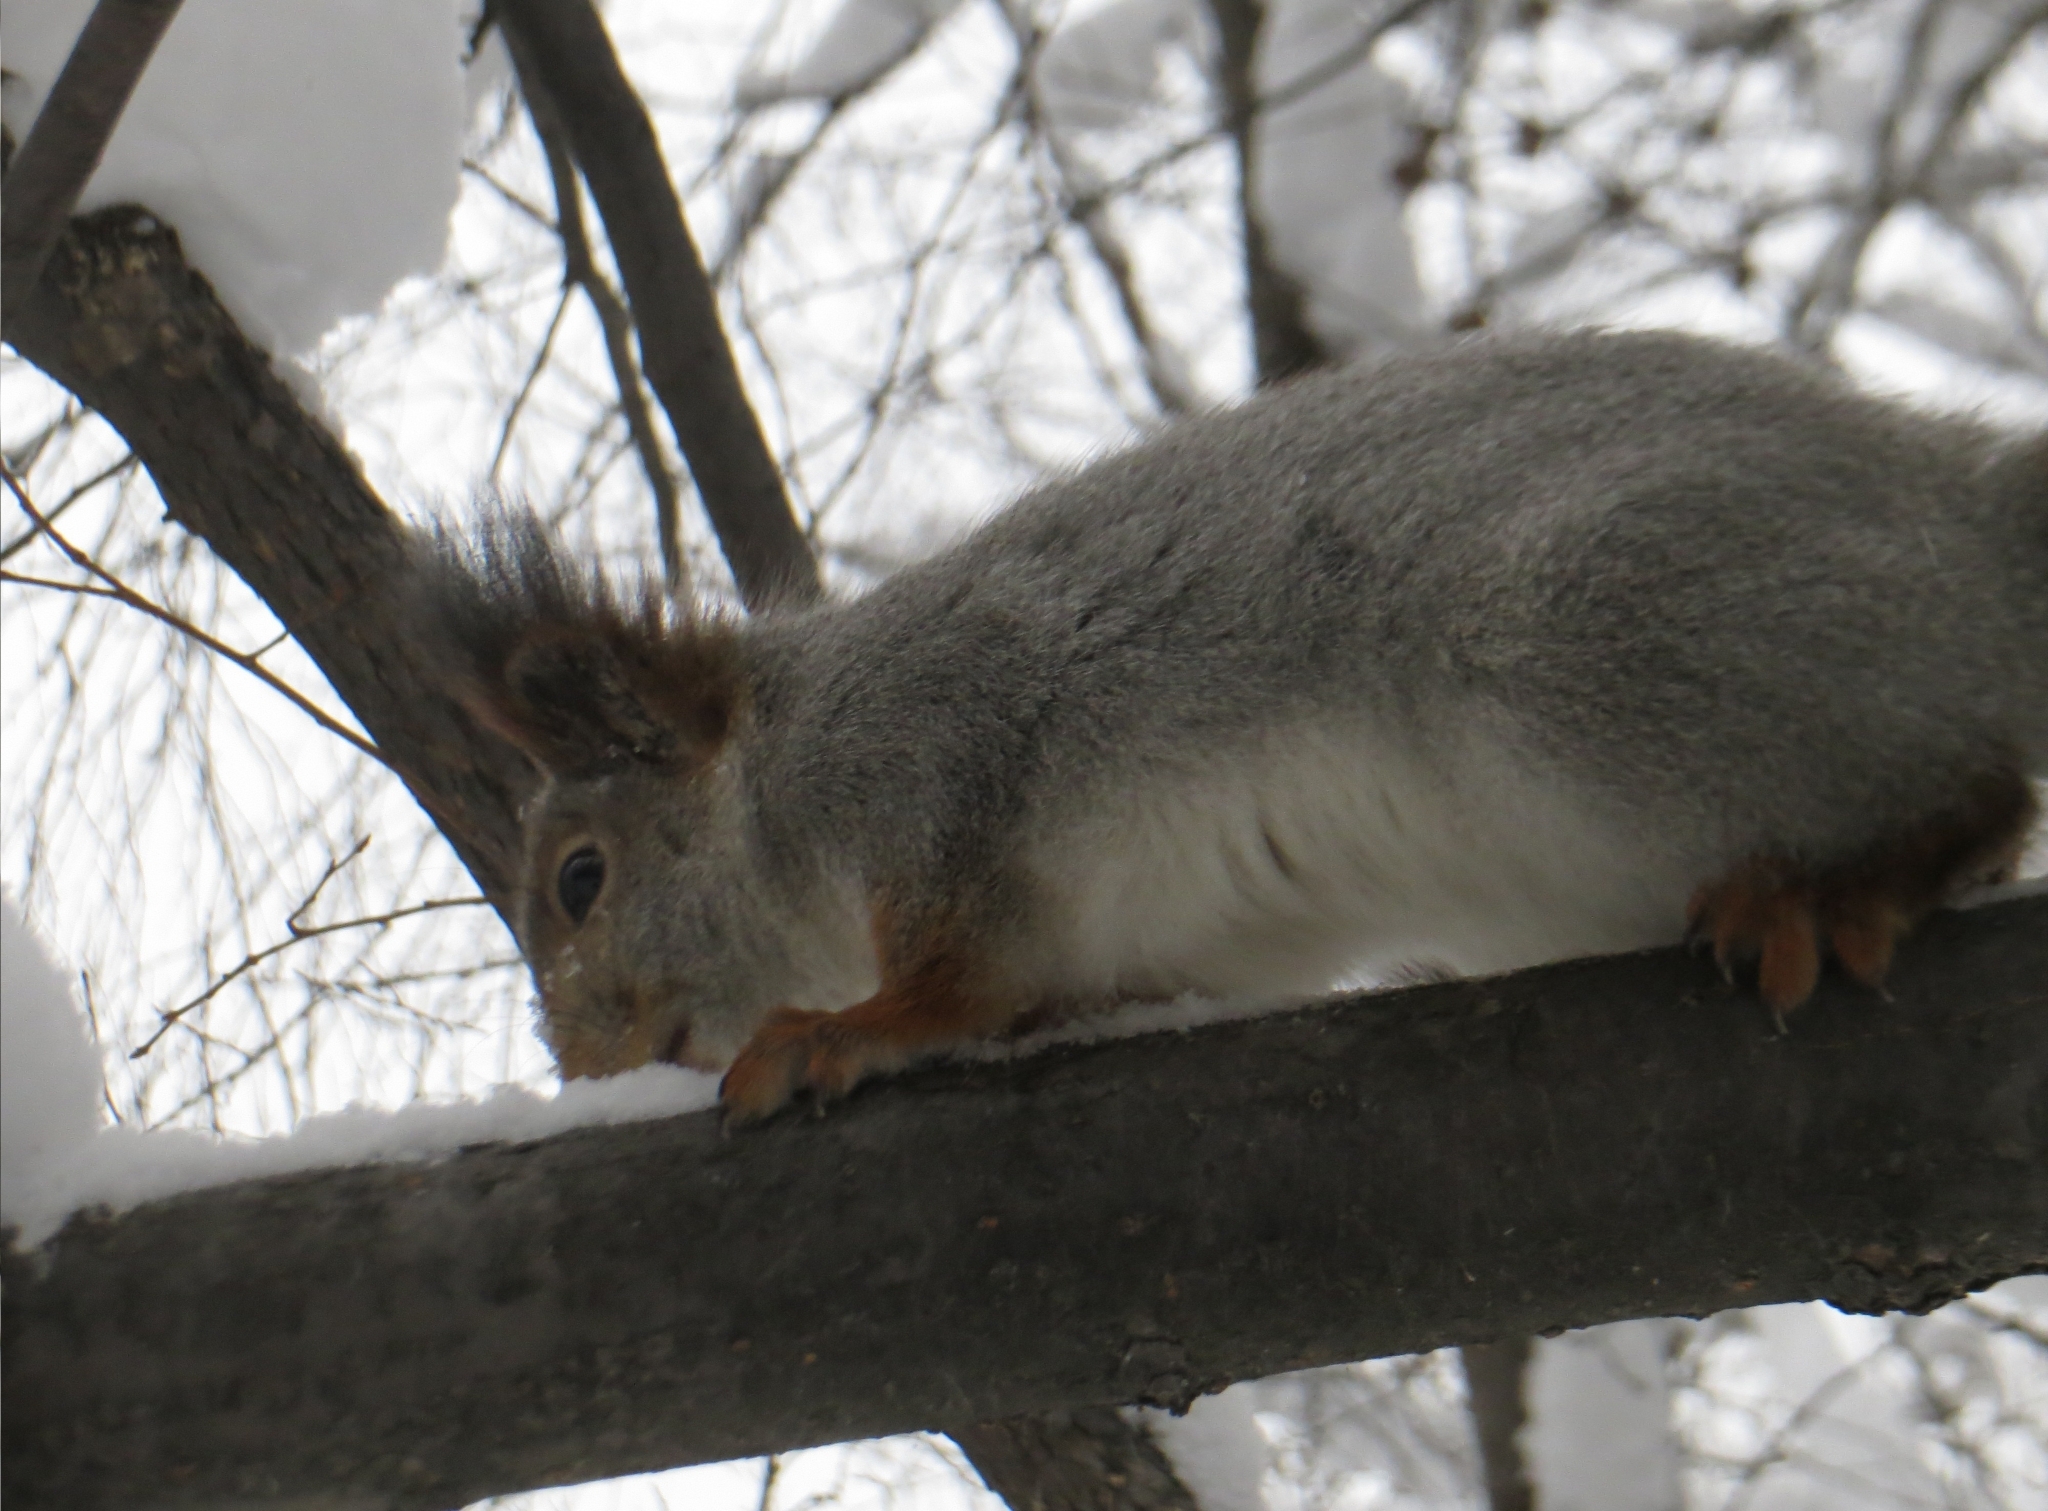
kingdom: Animalia
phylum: Chordata
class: Mammalia
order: Rodentia
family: Sciuridae
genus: Sciurus
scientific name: Sciurus vulgaris
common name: Eurasian red squirrel
